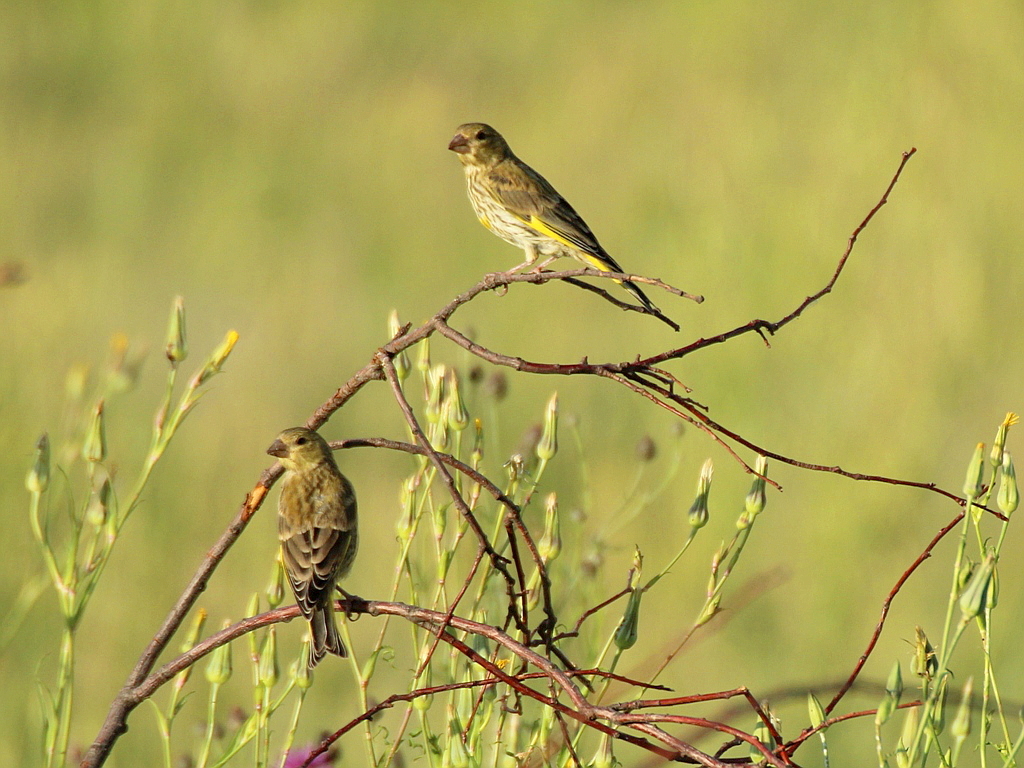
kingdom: Plantae
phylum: Tracheophyta
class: Liliopsida
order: Poales
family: Poaceae
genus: Chloris
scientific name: Chloris chloris
